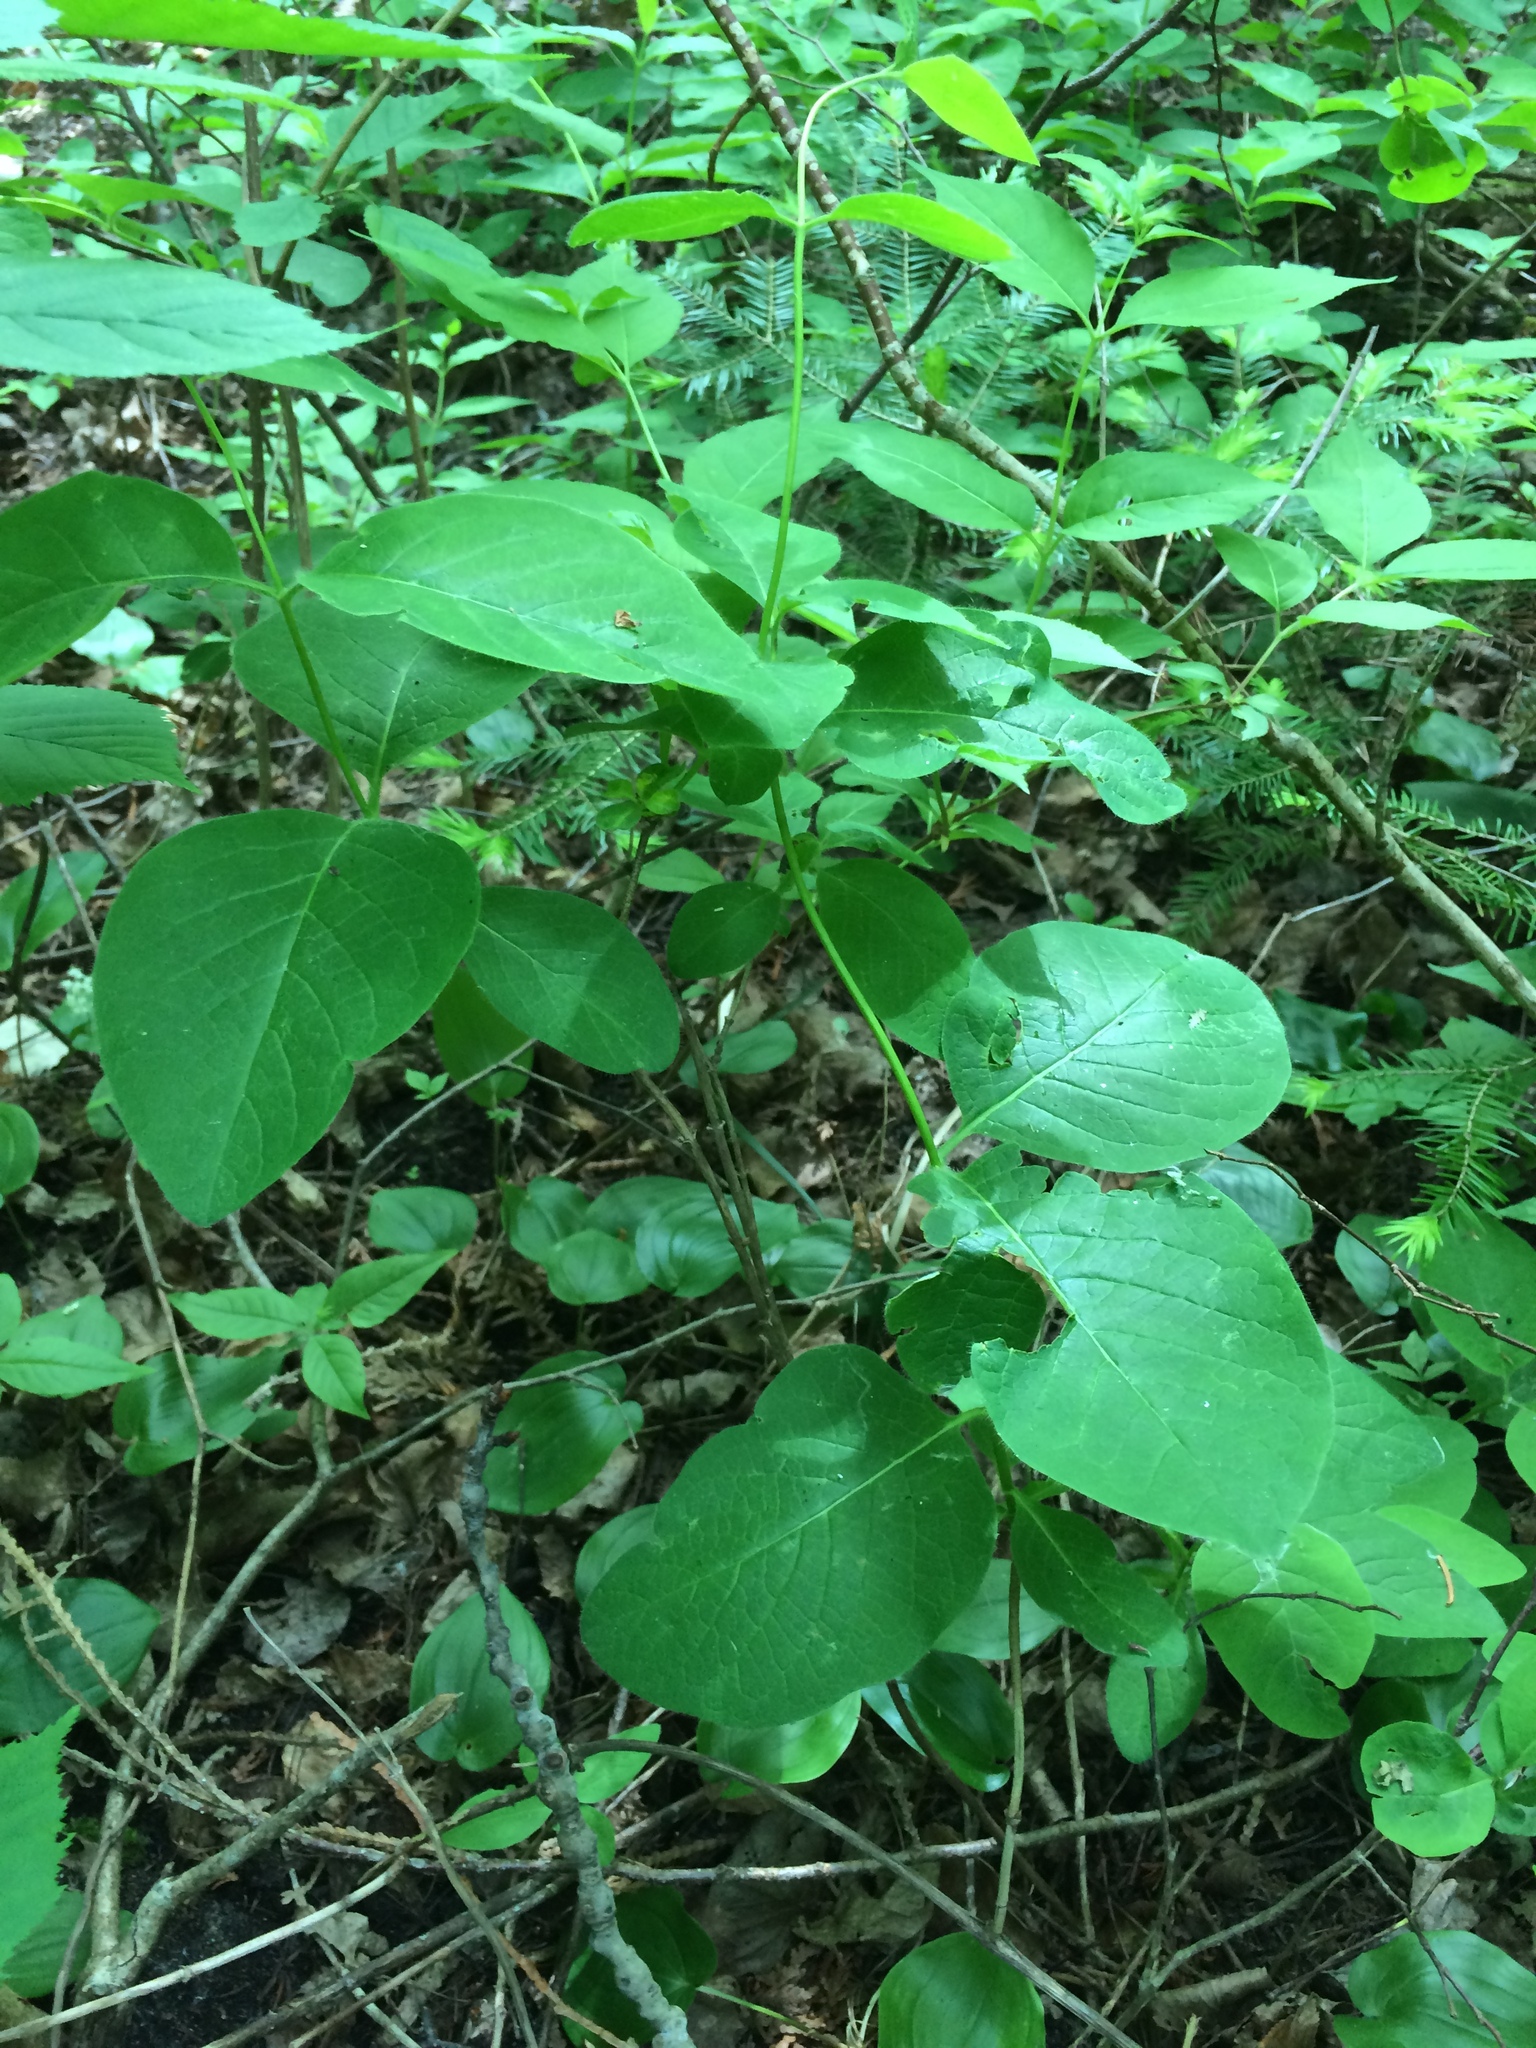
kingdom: Plantae
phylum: Tracheophyta
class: Magnoliopsida
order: Dipsacales
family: Caprifoliaceae
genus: Lonicera
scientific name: Lonicera hirsuta
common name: Hairy honeysuckle
